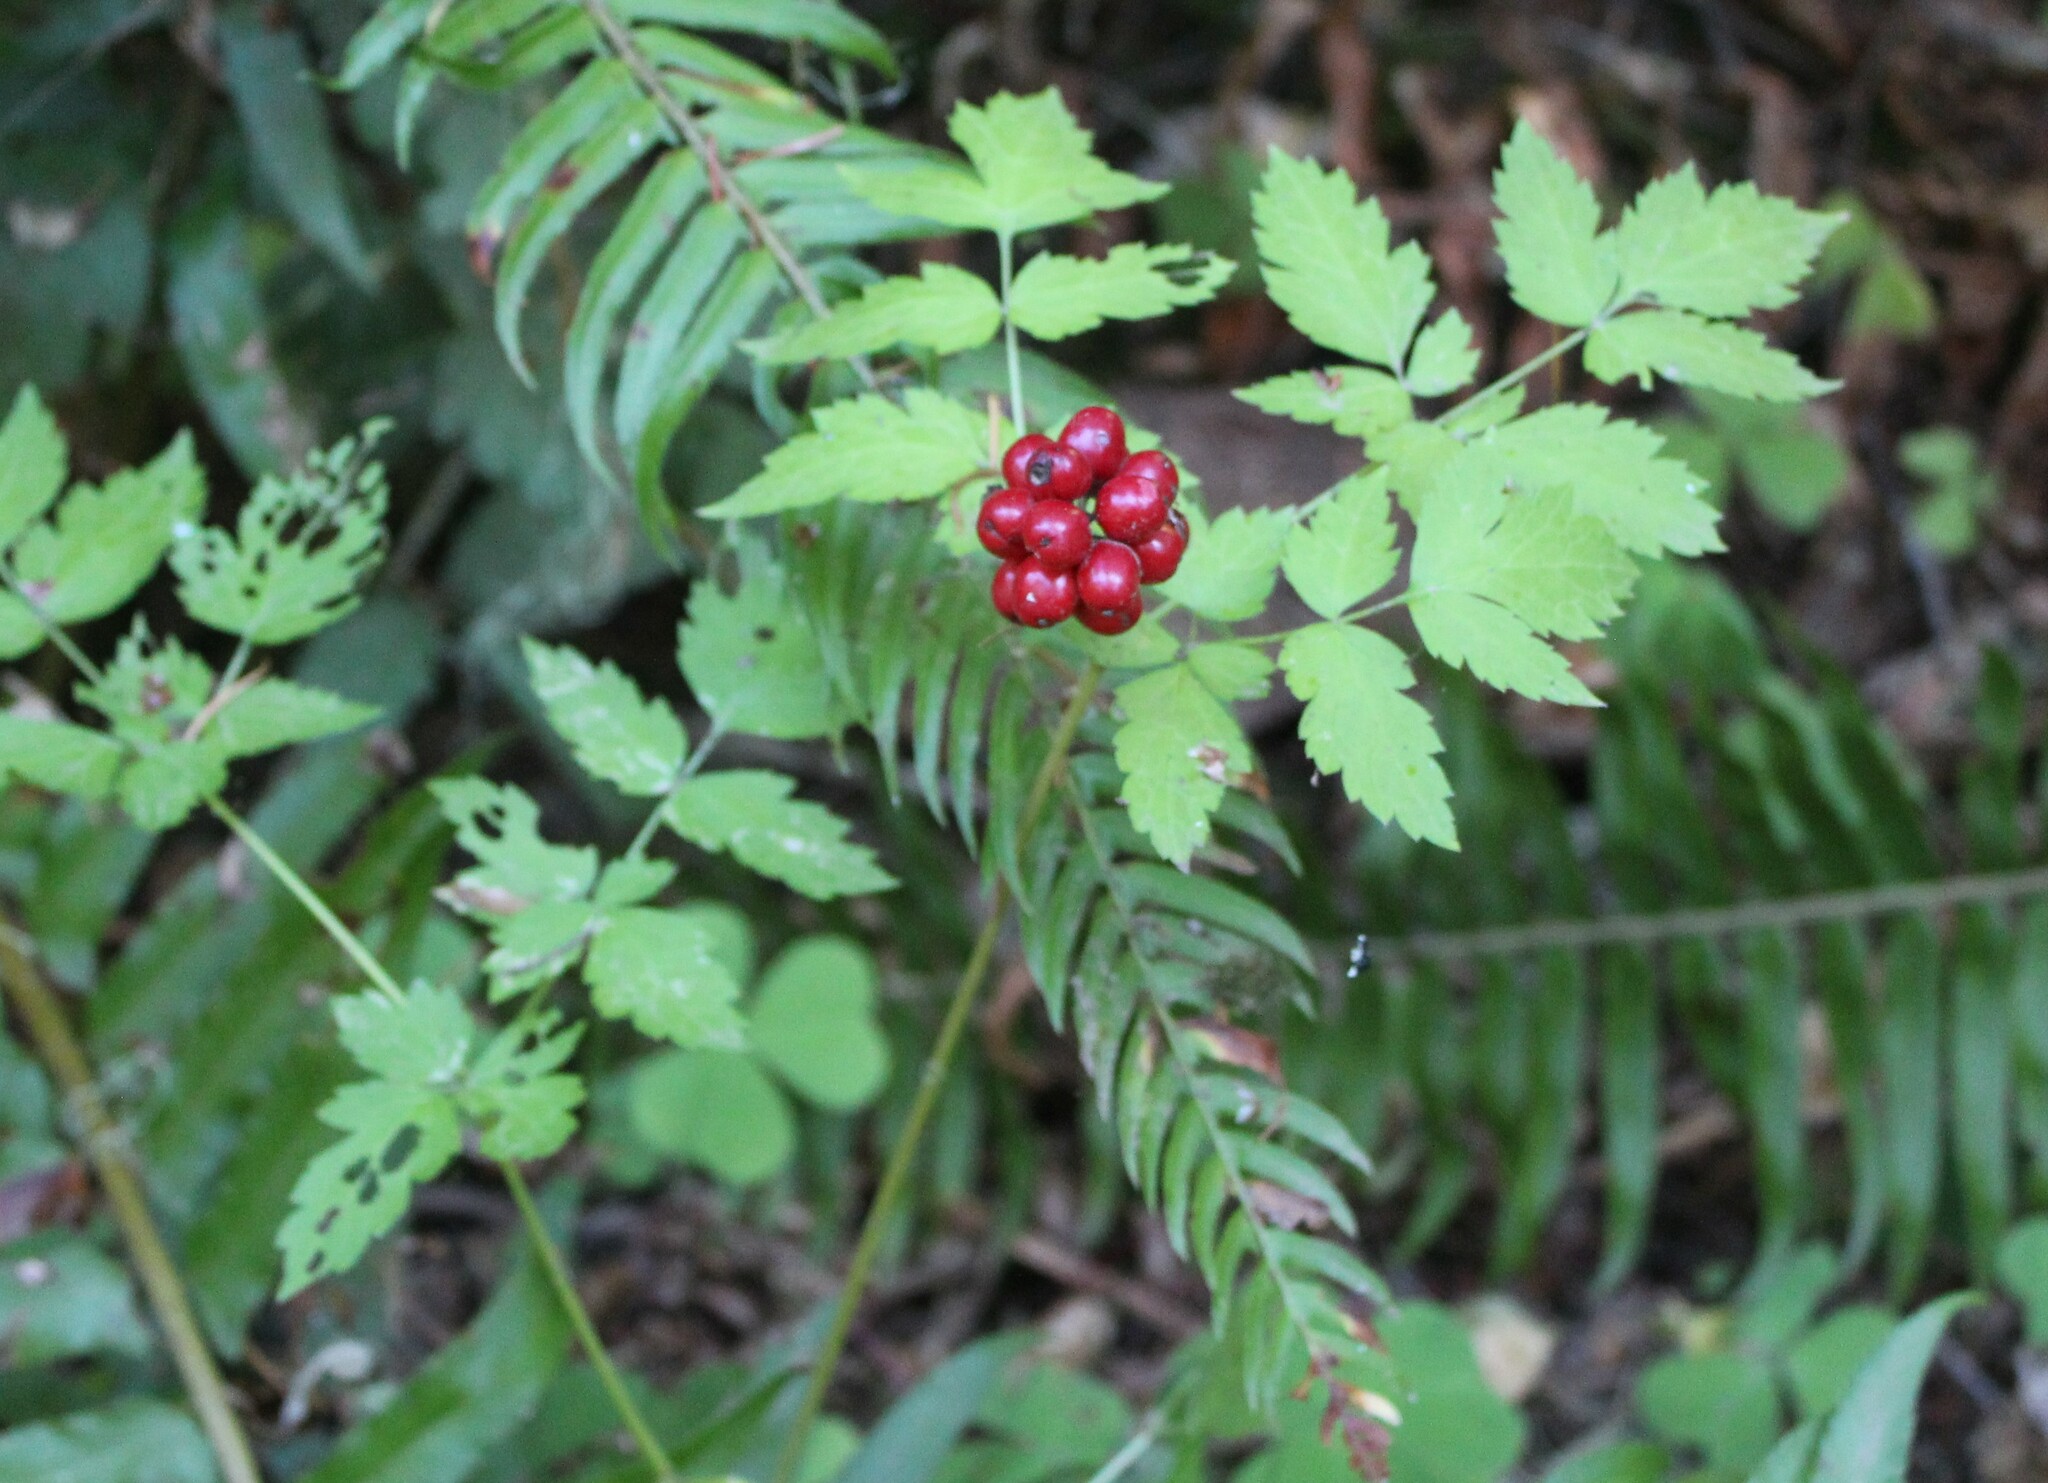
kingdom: Plantae
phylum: Tracheophyta
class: Magnoliopsida
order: Ranunculales
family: Ranunculaceae
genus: Actaea
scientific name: Actaea rubra
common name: Red baneberry
